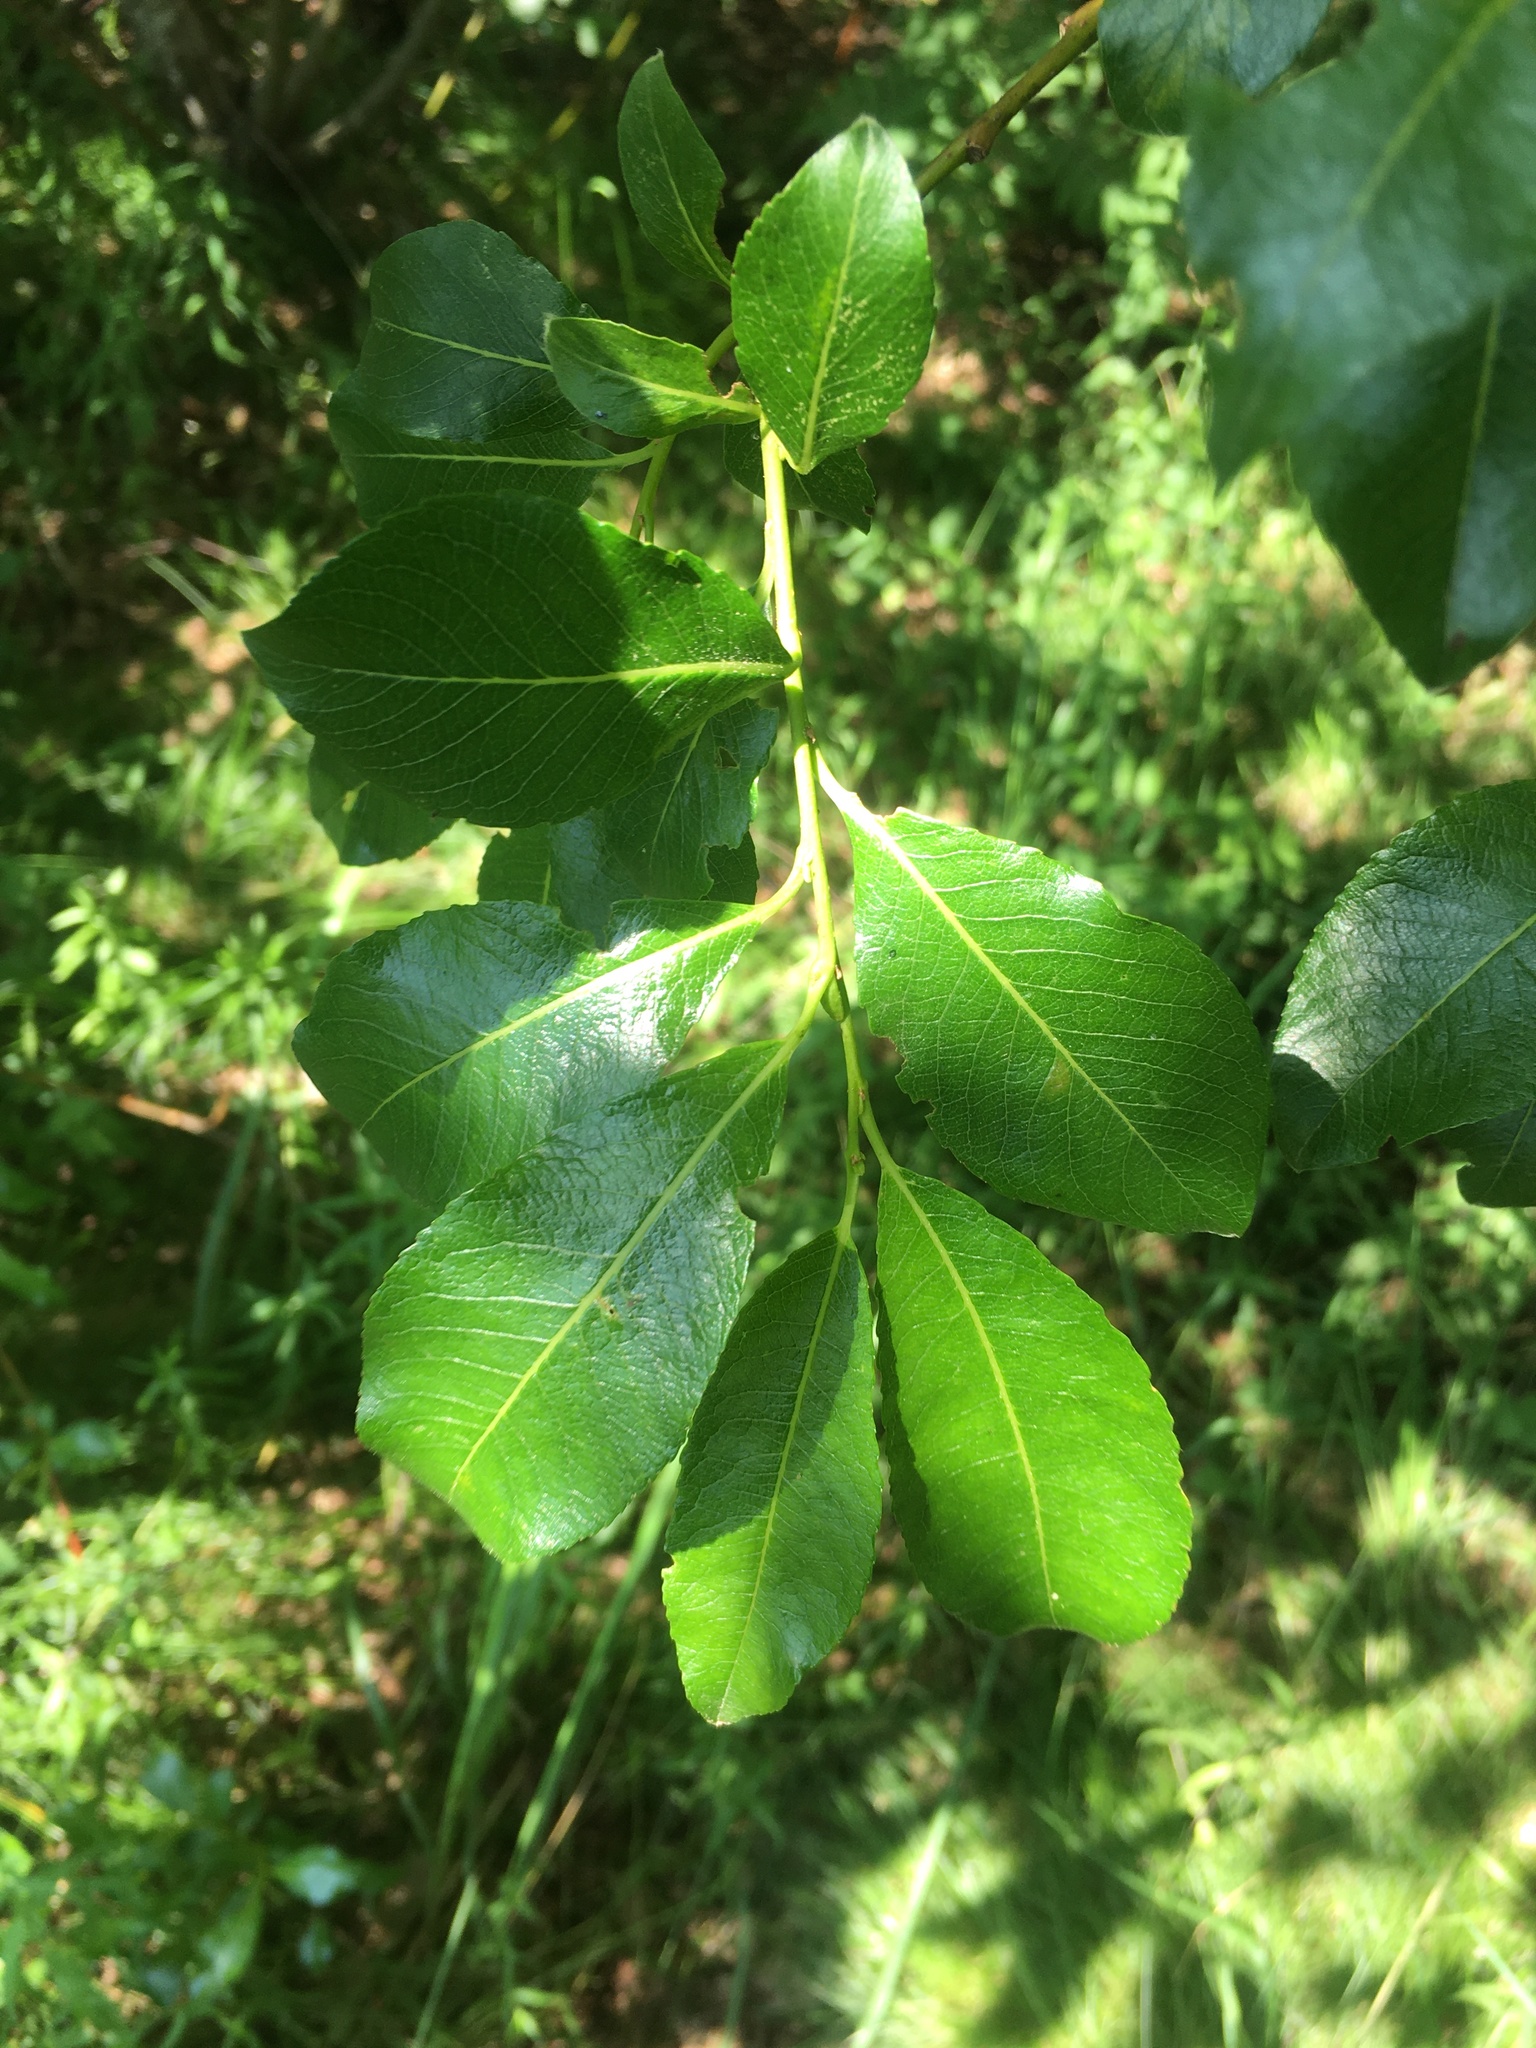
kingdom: Plantae
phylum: Tracheophyta
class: Magnoliopsida
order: Malpighiales
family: Salicaceae
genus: Salix
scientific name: Salix caprea
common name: Goat willow
